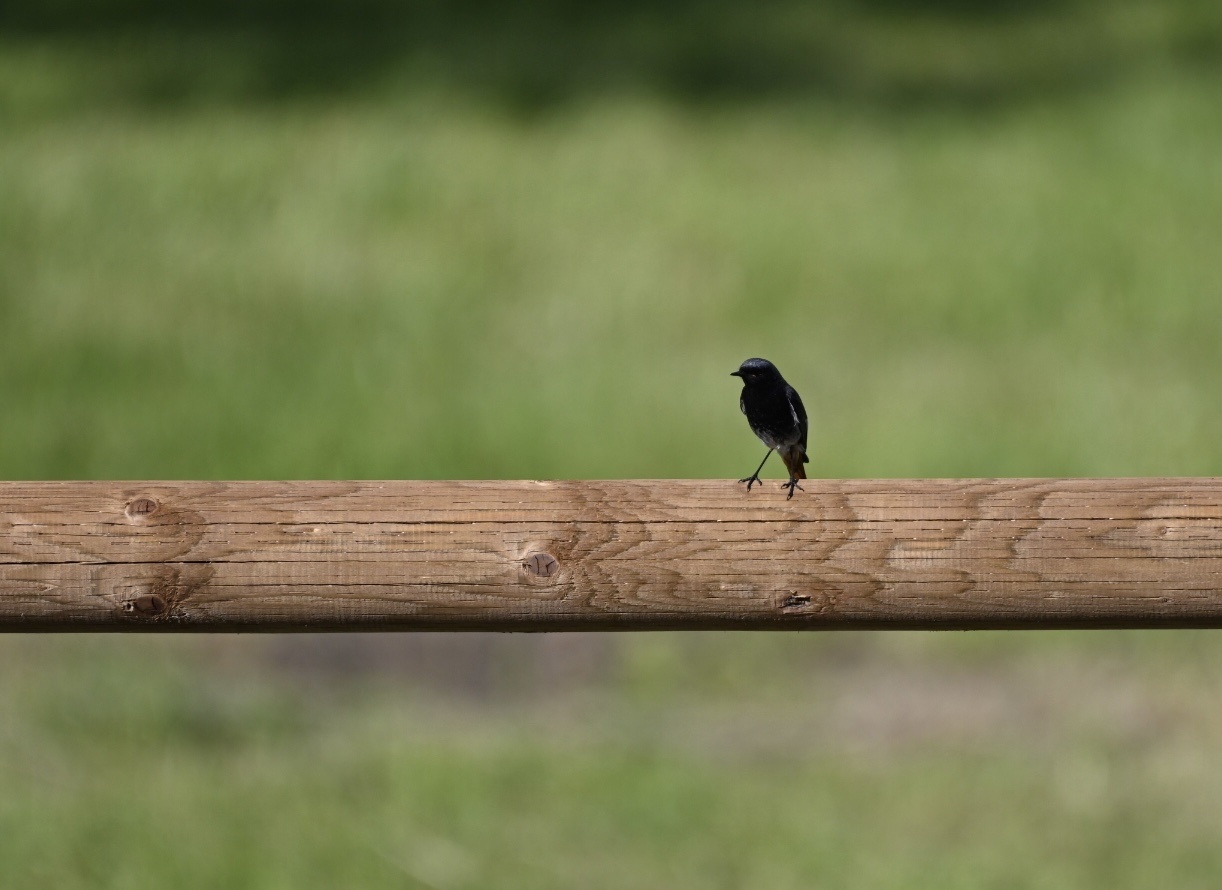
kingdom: Animalia
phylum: Chordata
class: Aves
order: Passeriformes
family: Muscicapidae
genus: Phoenicurus
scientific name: Phoenicurus ochruros
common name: Black redstart
